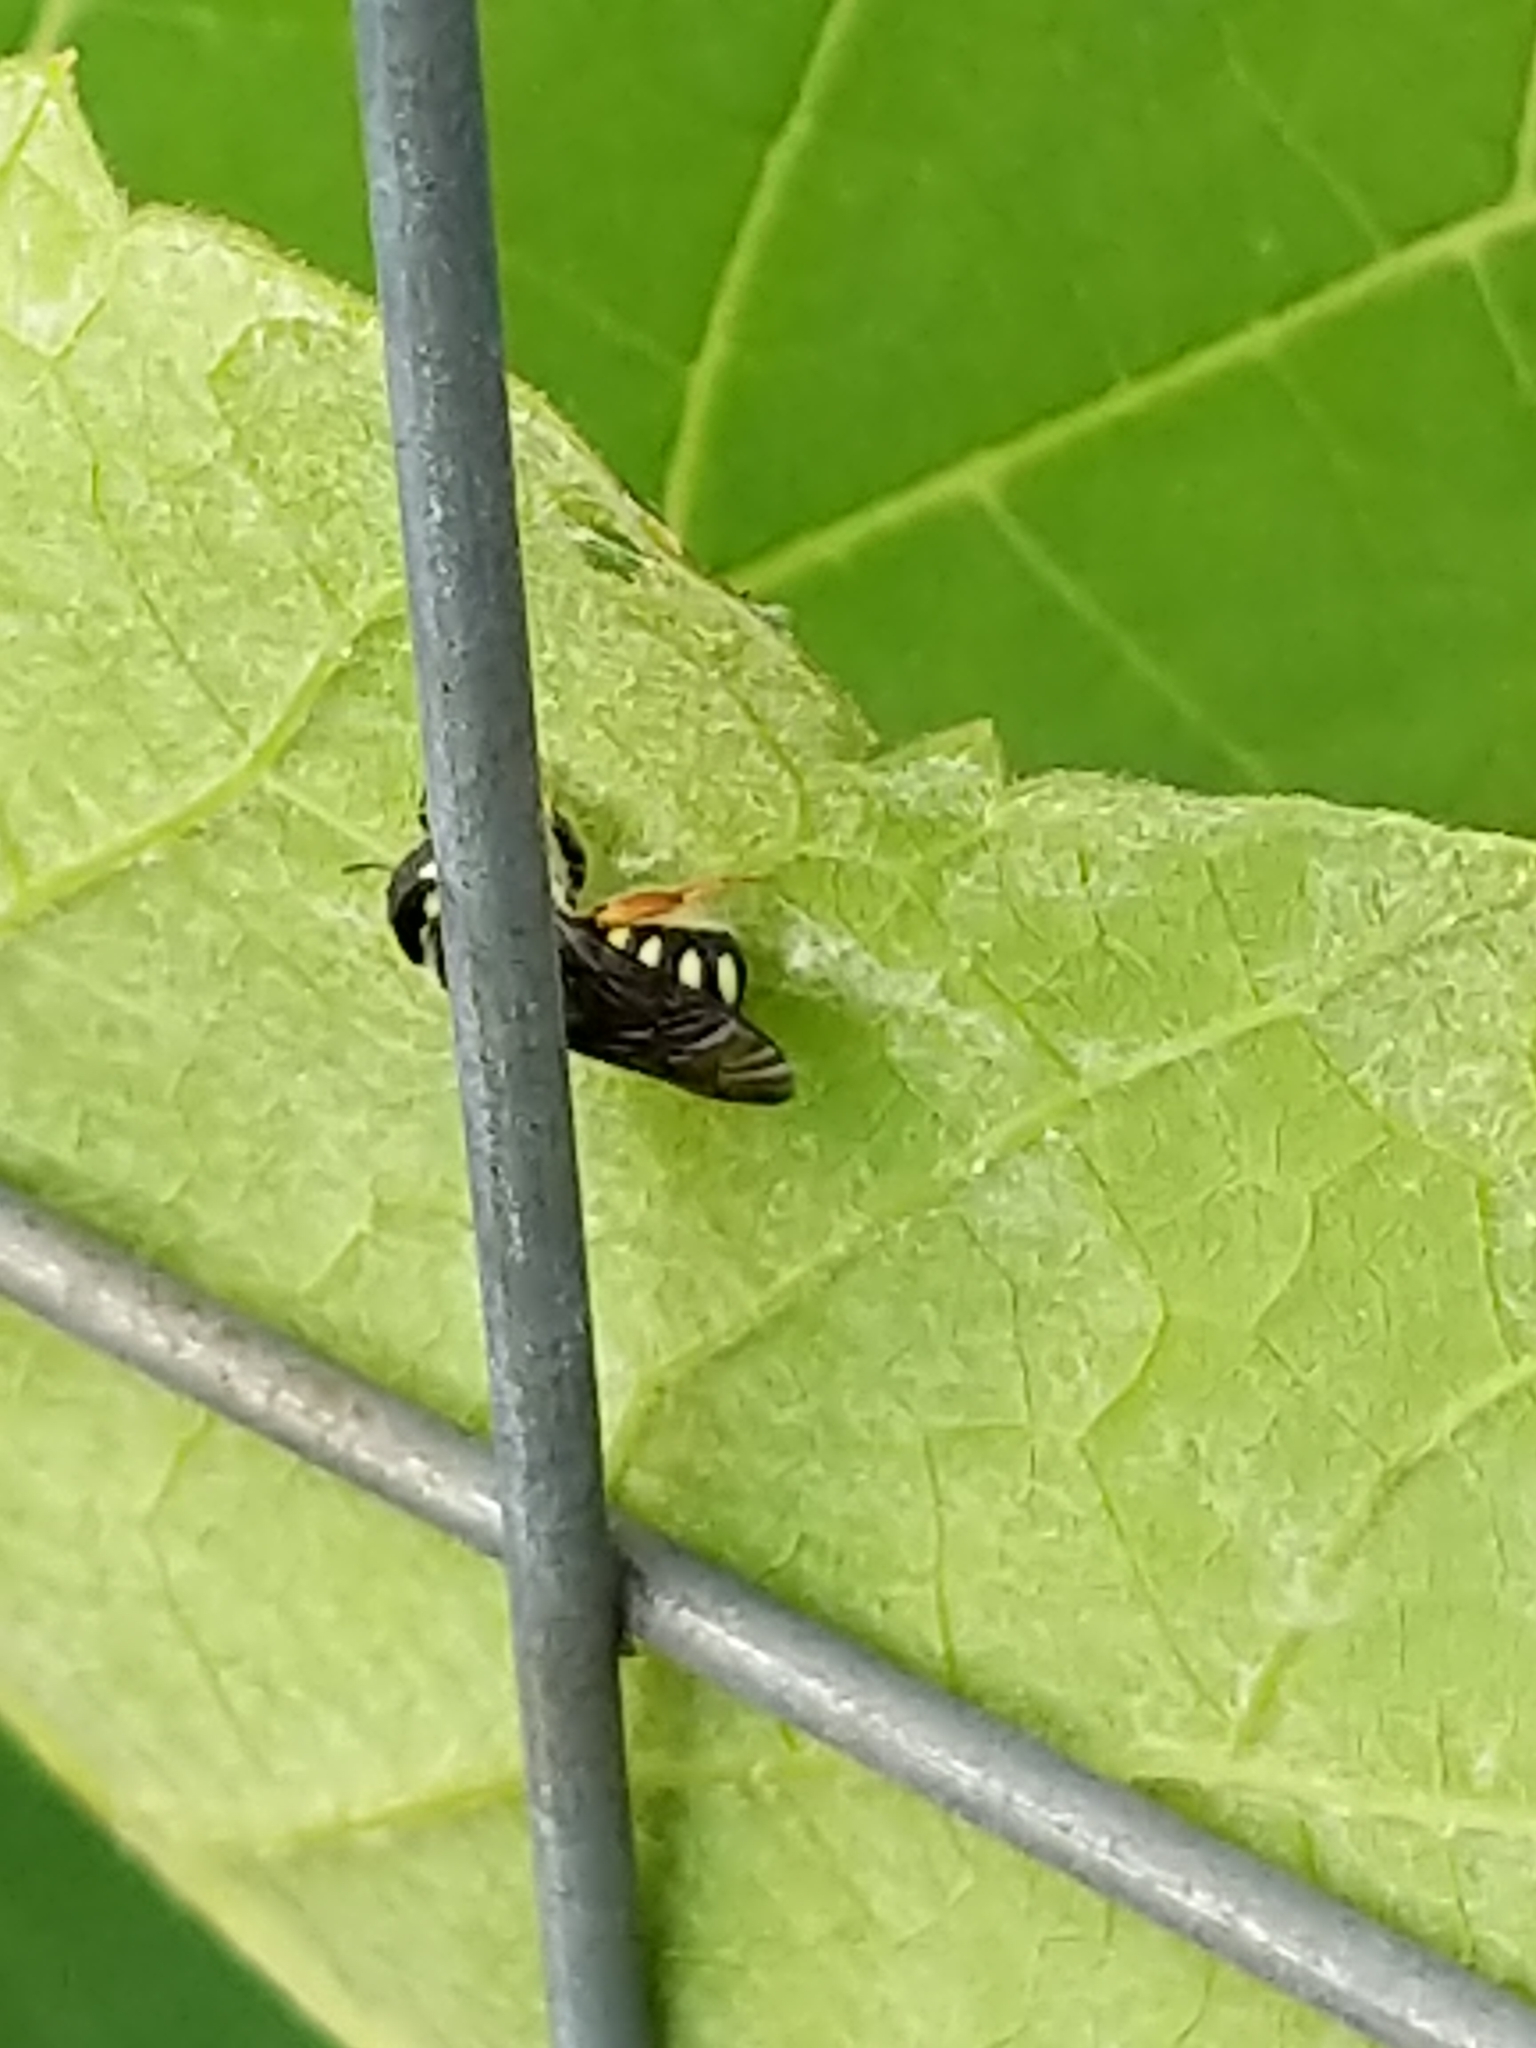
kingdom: Animalia
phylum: Arthropoda
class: Insecta
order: Hymenoptera
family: Megachilidae
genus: Pseudoanthidium
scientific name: Pseudoanthidium nanum
